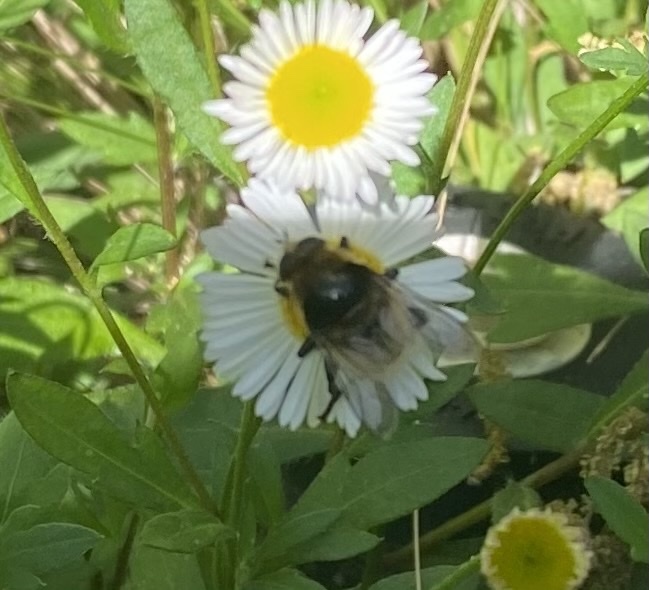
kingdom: Animalia
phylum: Arthropoda
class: Insecta
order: Diptera
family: Syrphidae
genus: Merodon
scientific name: Merodon equestris
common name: Greater bulb-fly
